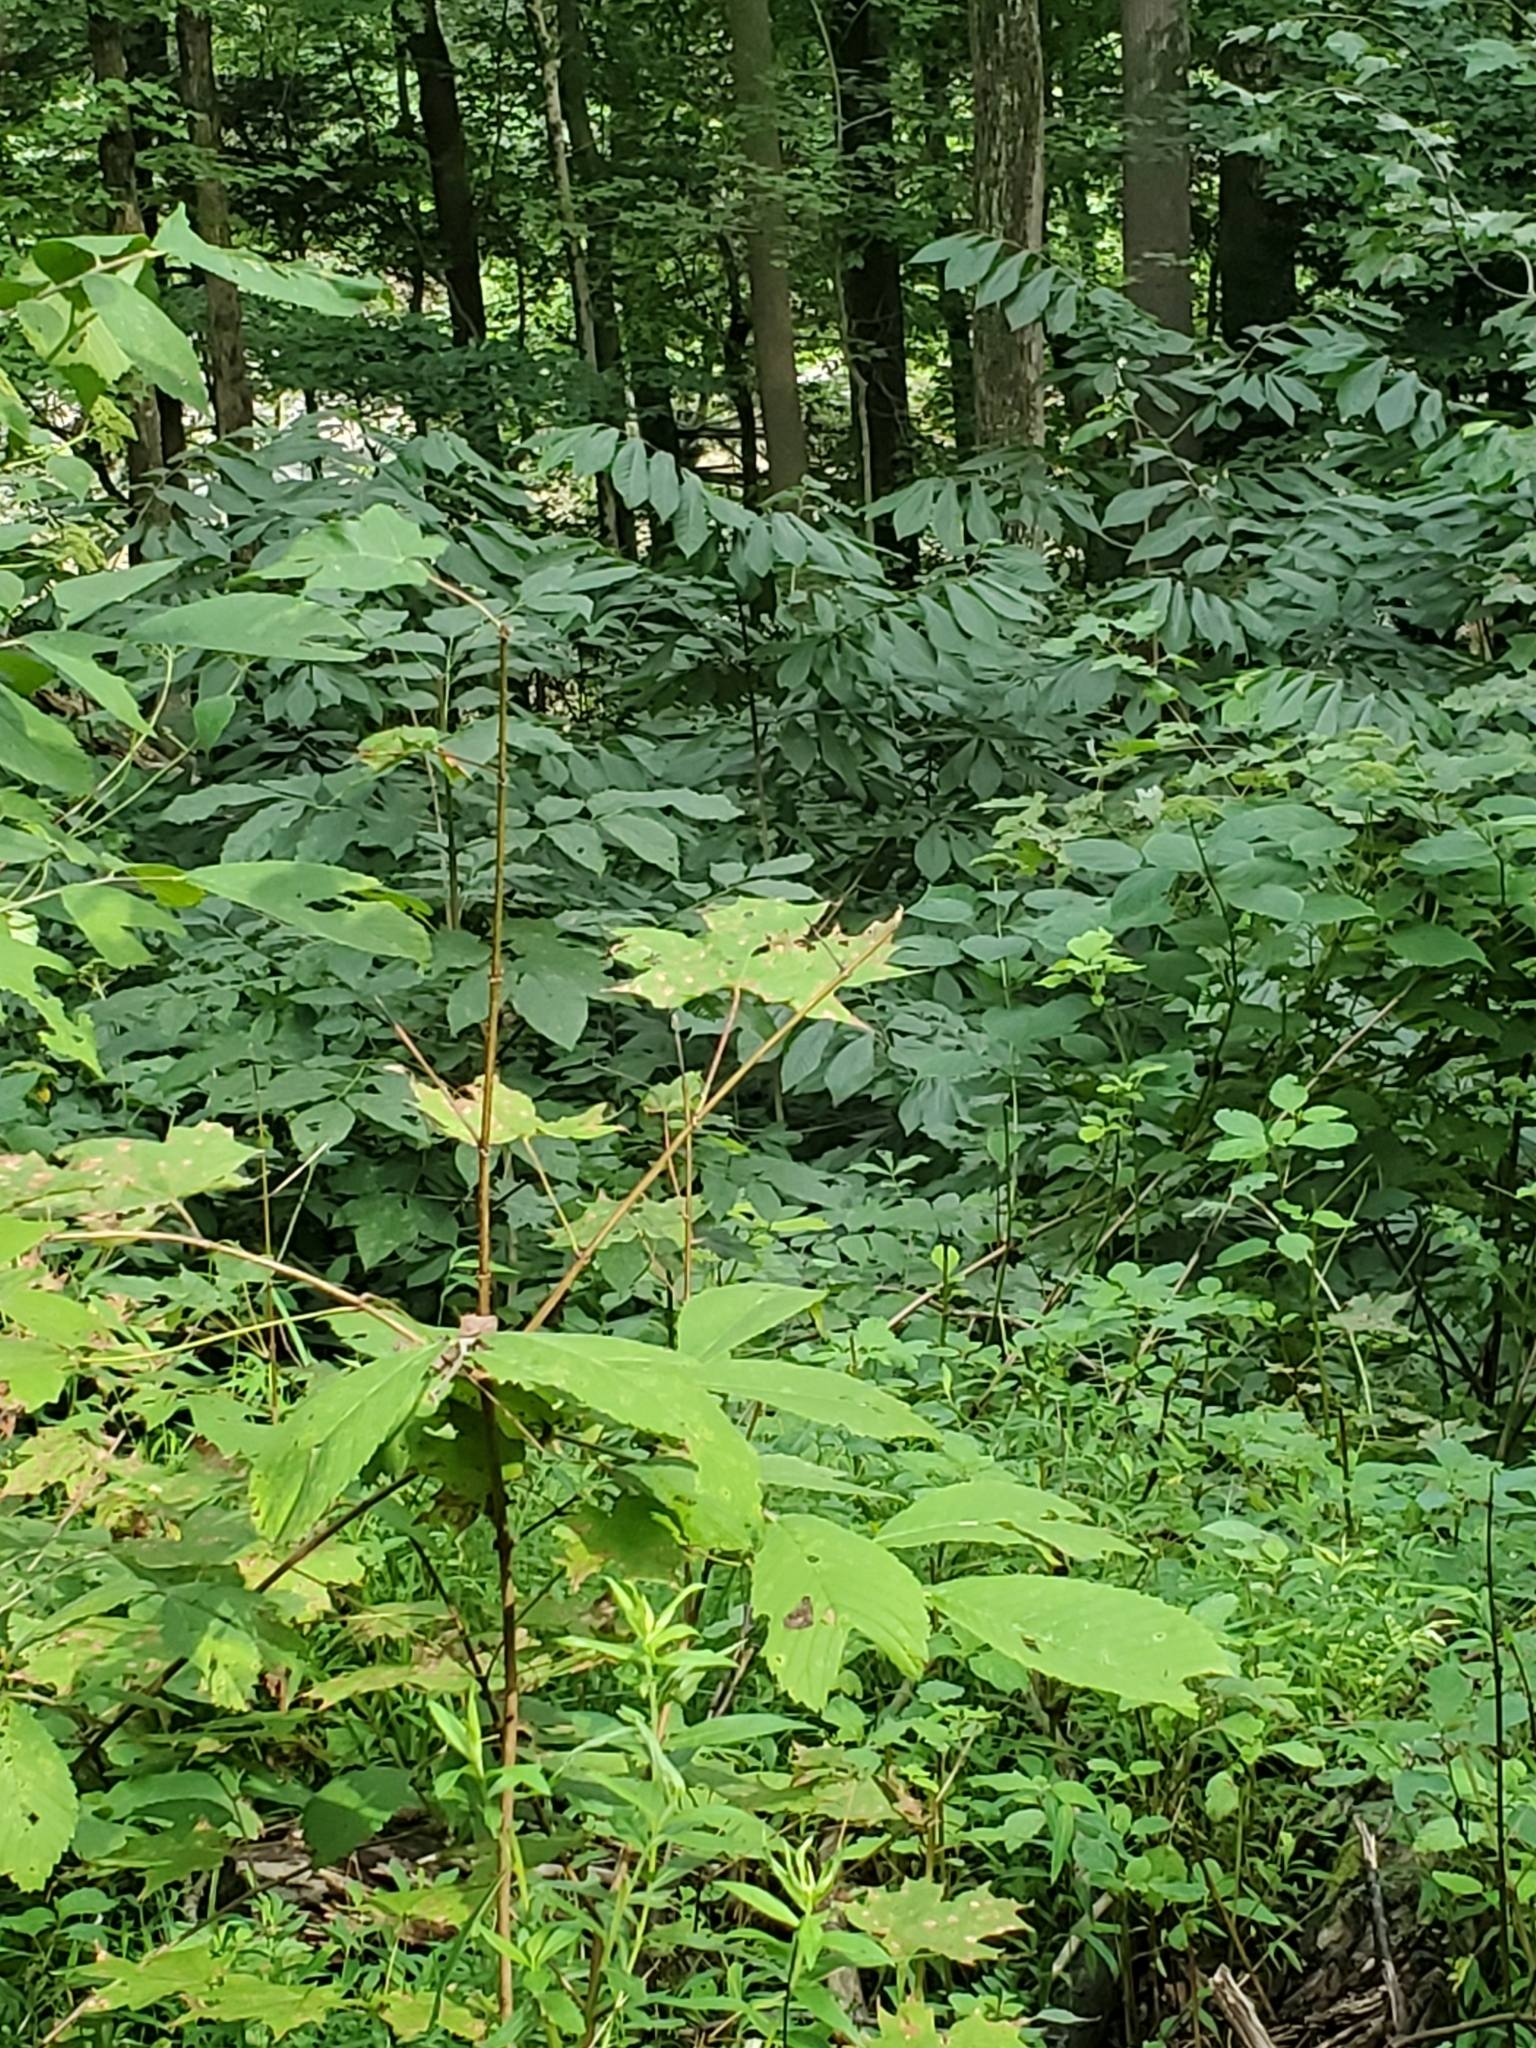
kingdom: Plantae
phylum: Tracheophyta
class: Magnoliopsida
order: Magnoliales
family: Annonaceae
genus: Asimina
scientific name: Asimina triloba
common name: Dog-banana
